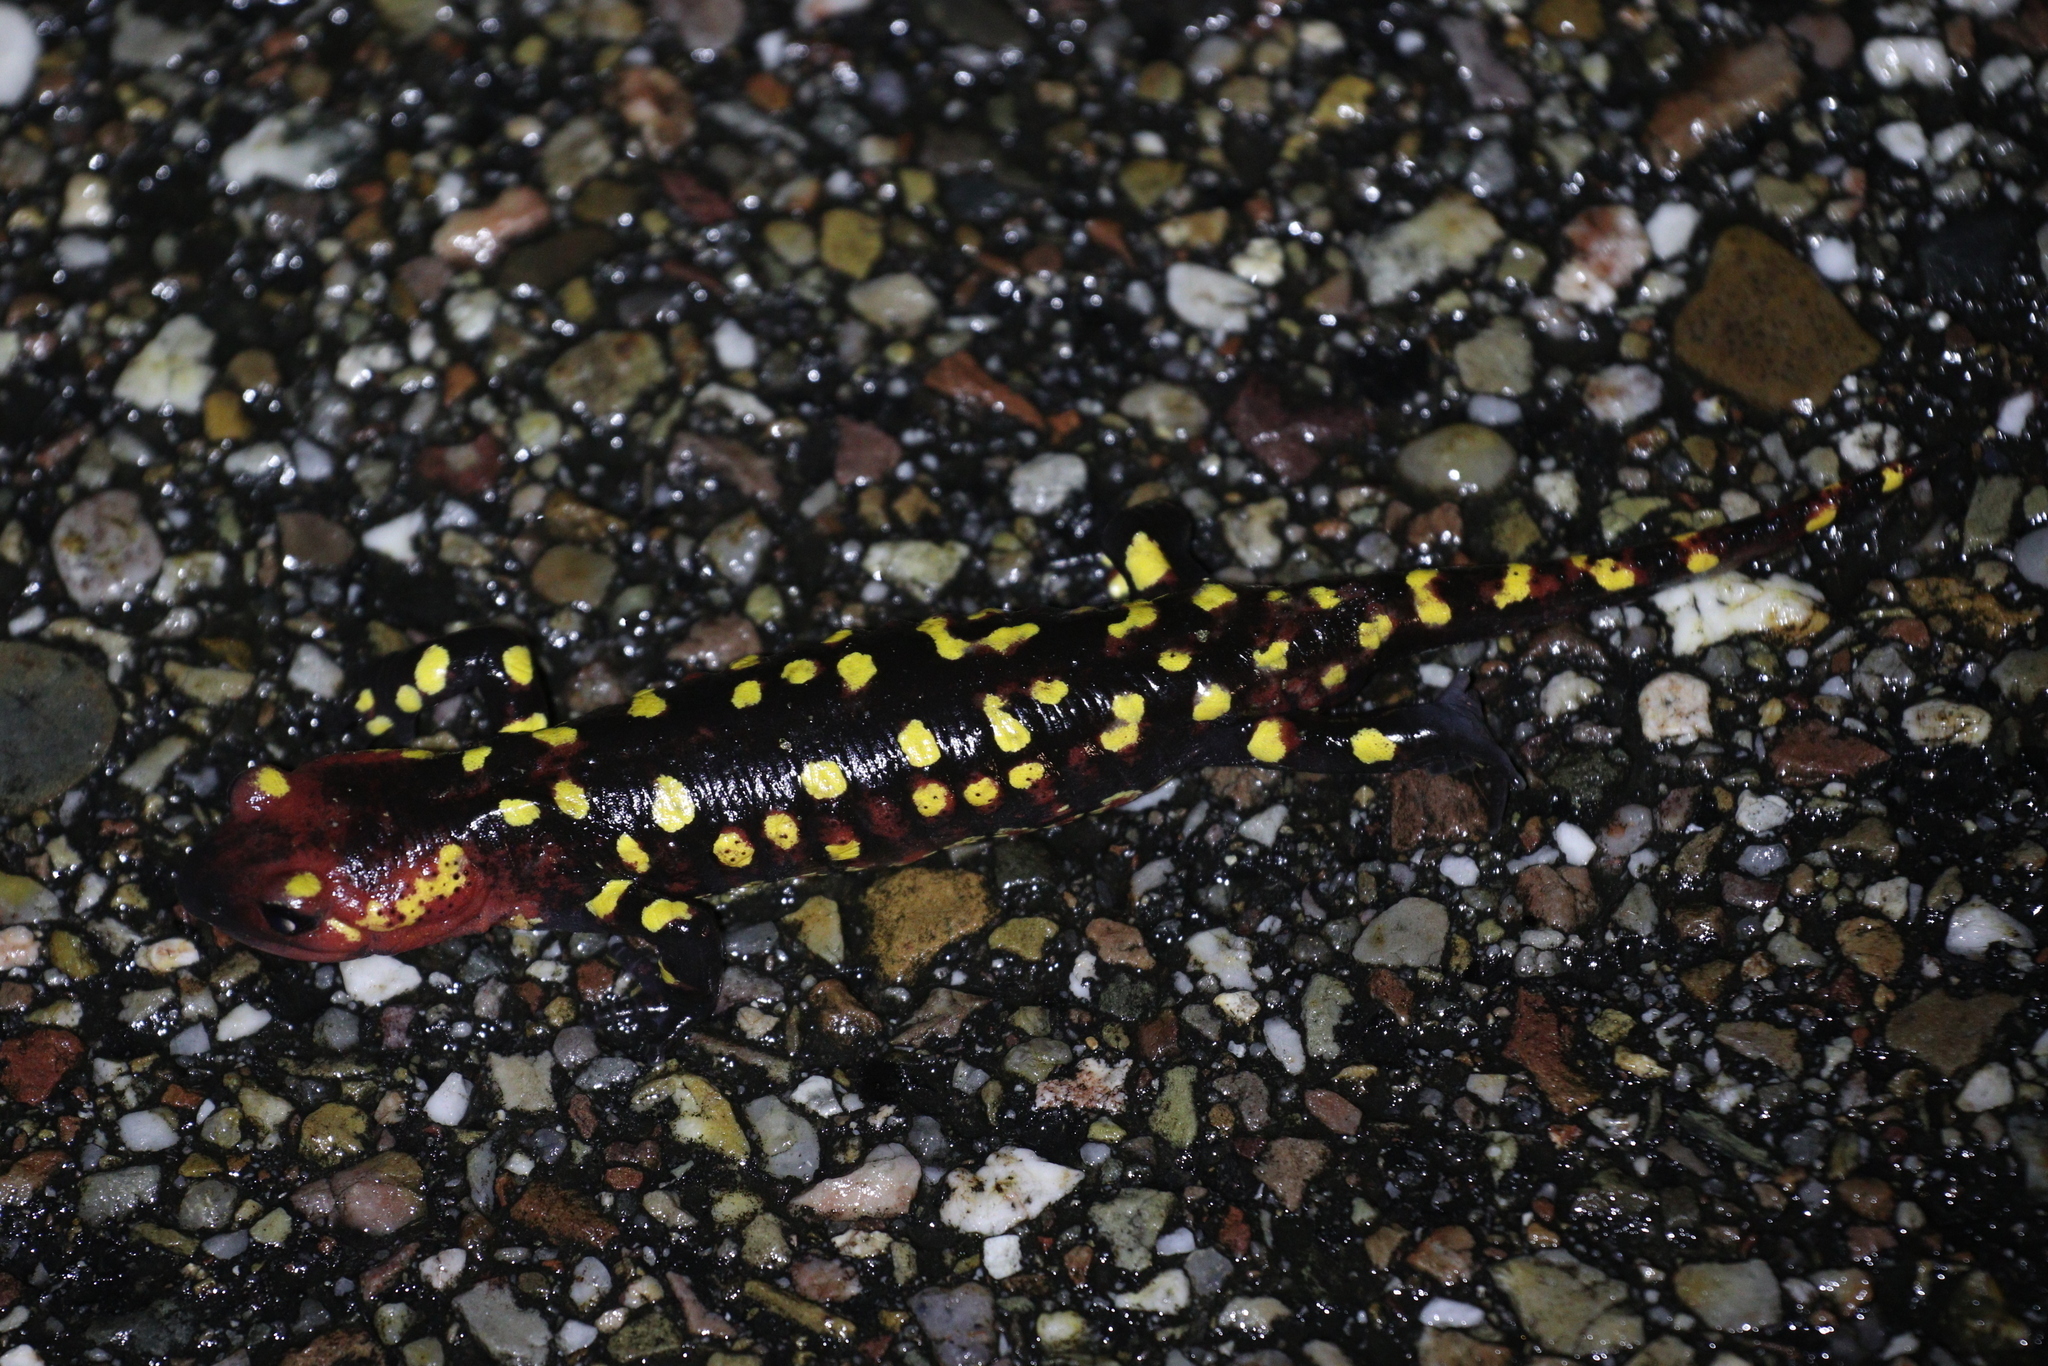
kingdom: Animalia
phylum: Chordata
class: Amphibia
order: Caudata
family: Salamandridae
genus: Salamandra
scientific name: Salamandra salamandra
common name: Fire salamander
